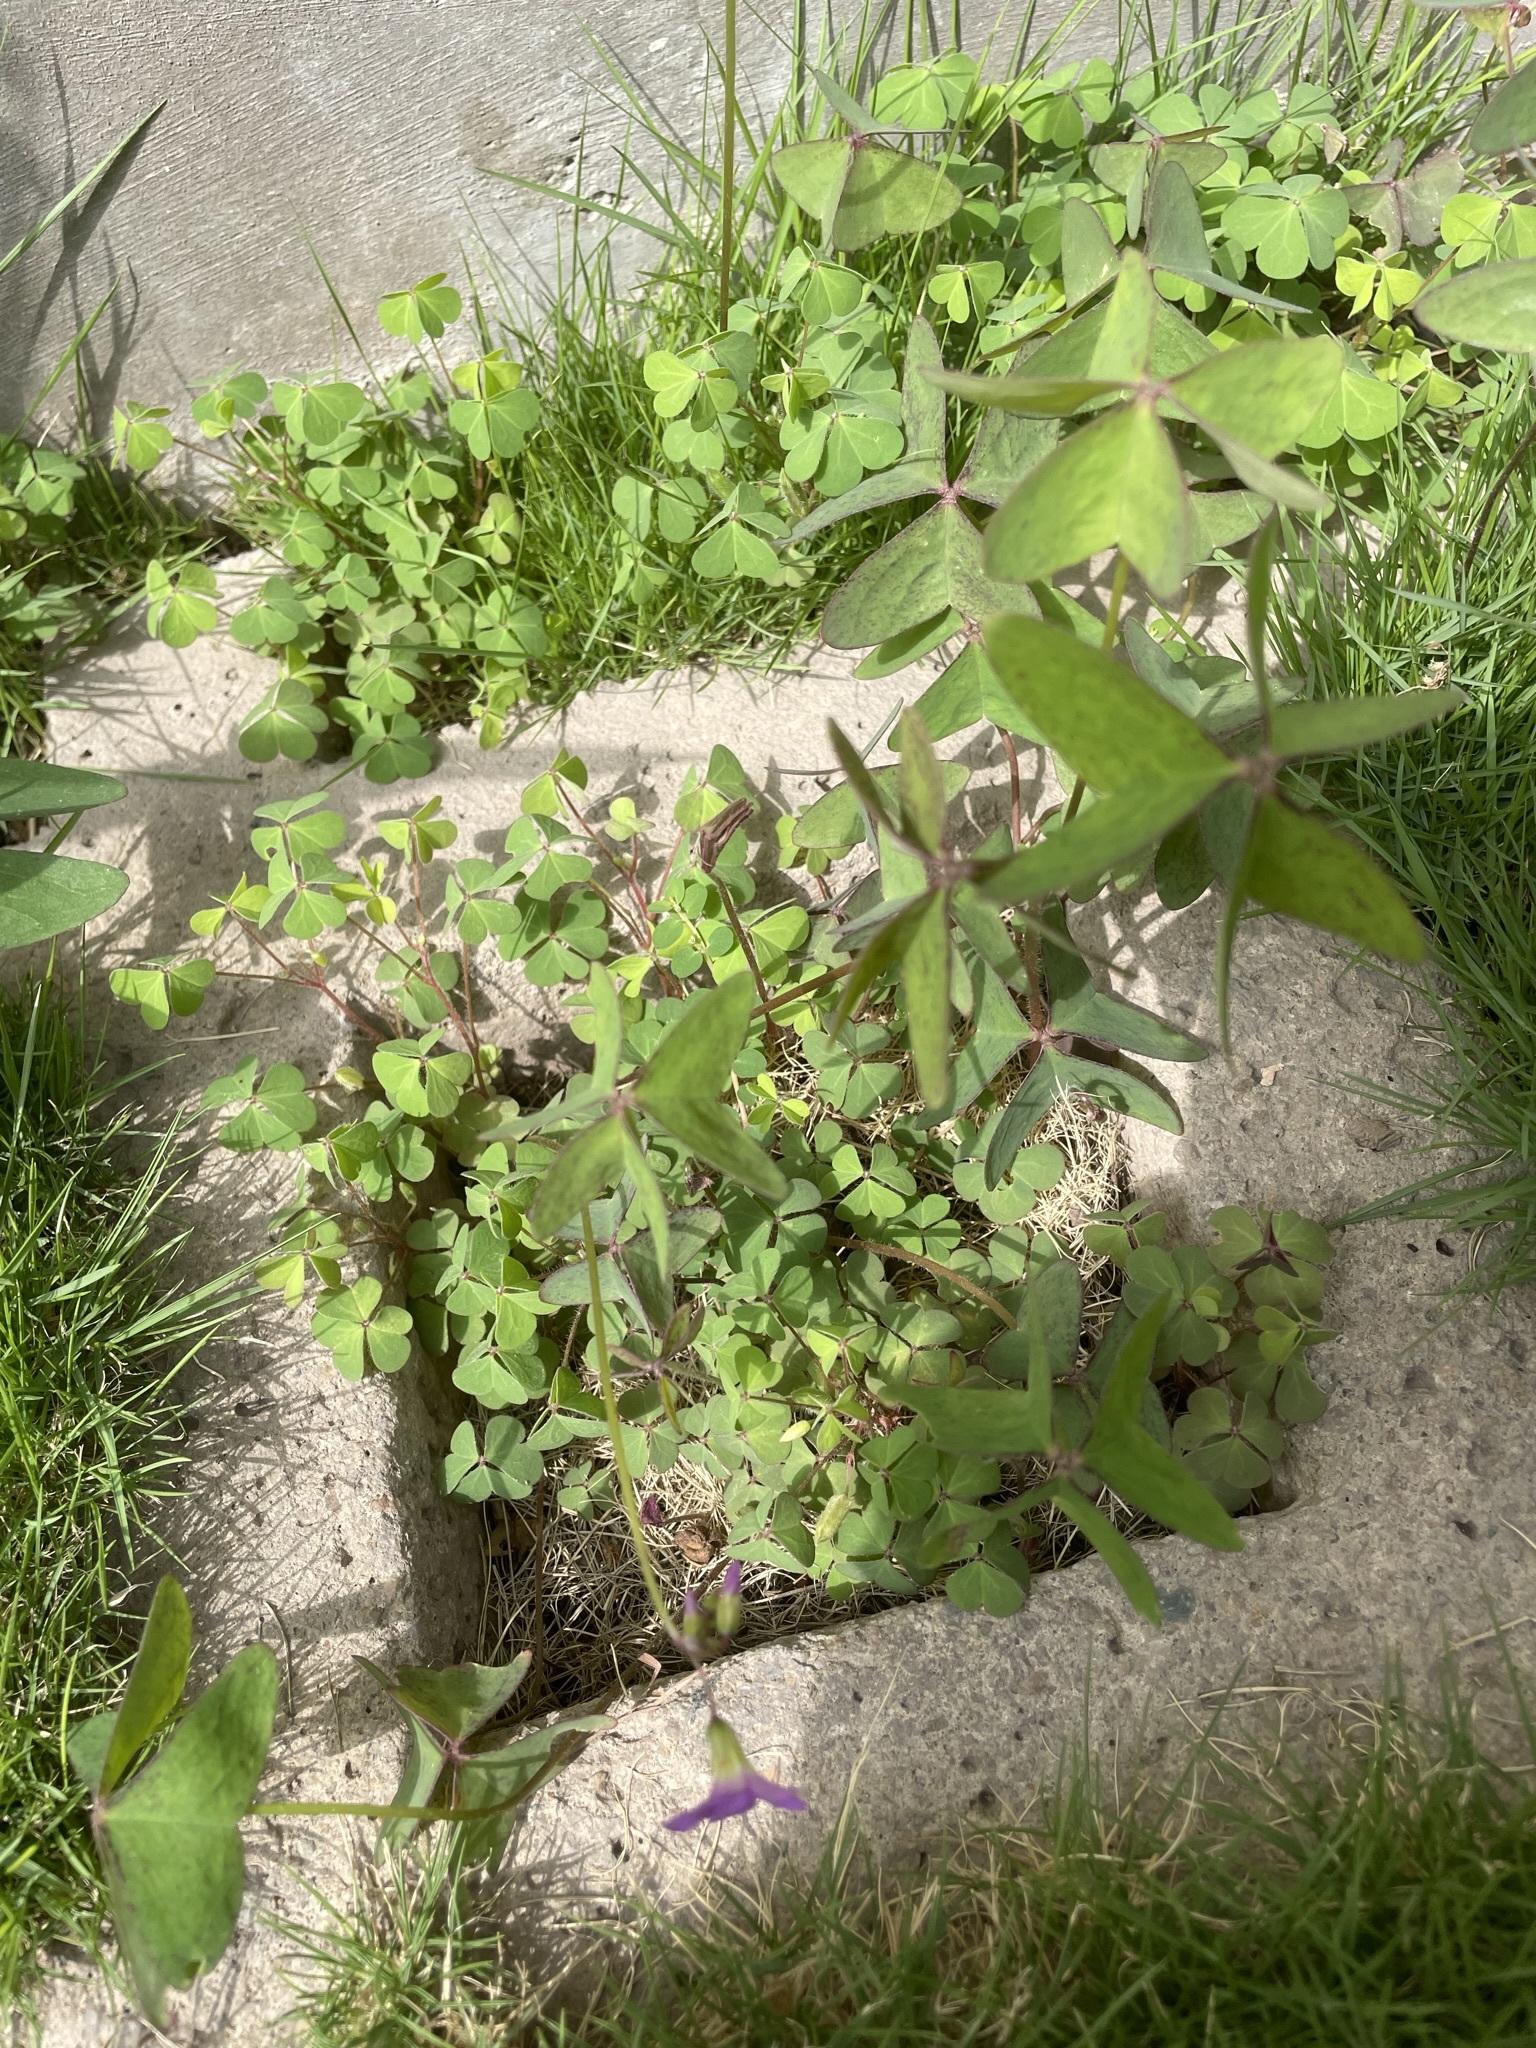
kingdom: Plantae
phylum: Tracheophyta
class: Magnoliopsida
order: Oxalidales
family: Oxalidaceae
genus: Oxalis
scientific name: Oxalis latifolia
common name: Garden pink-sorrel
